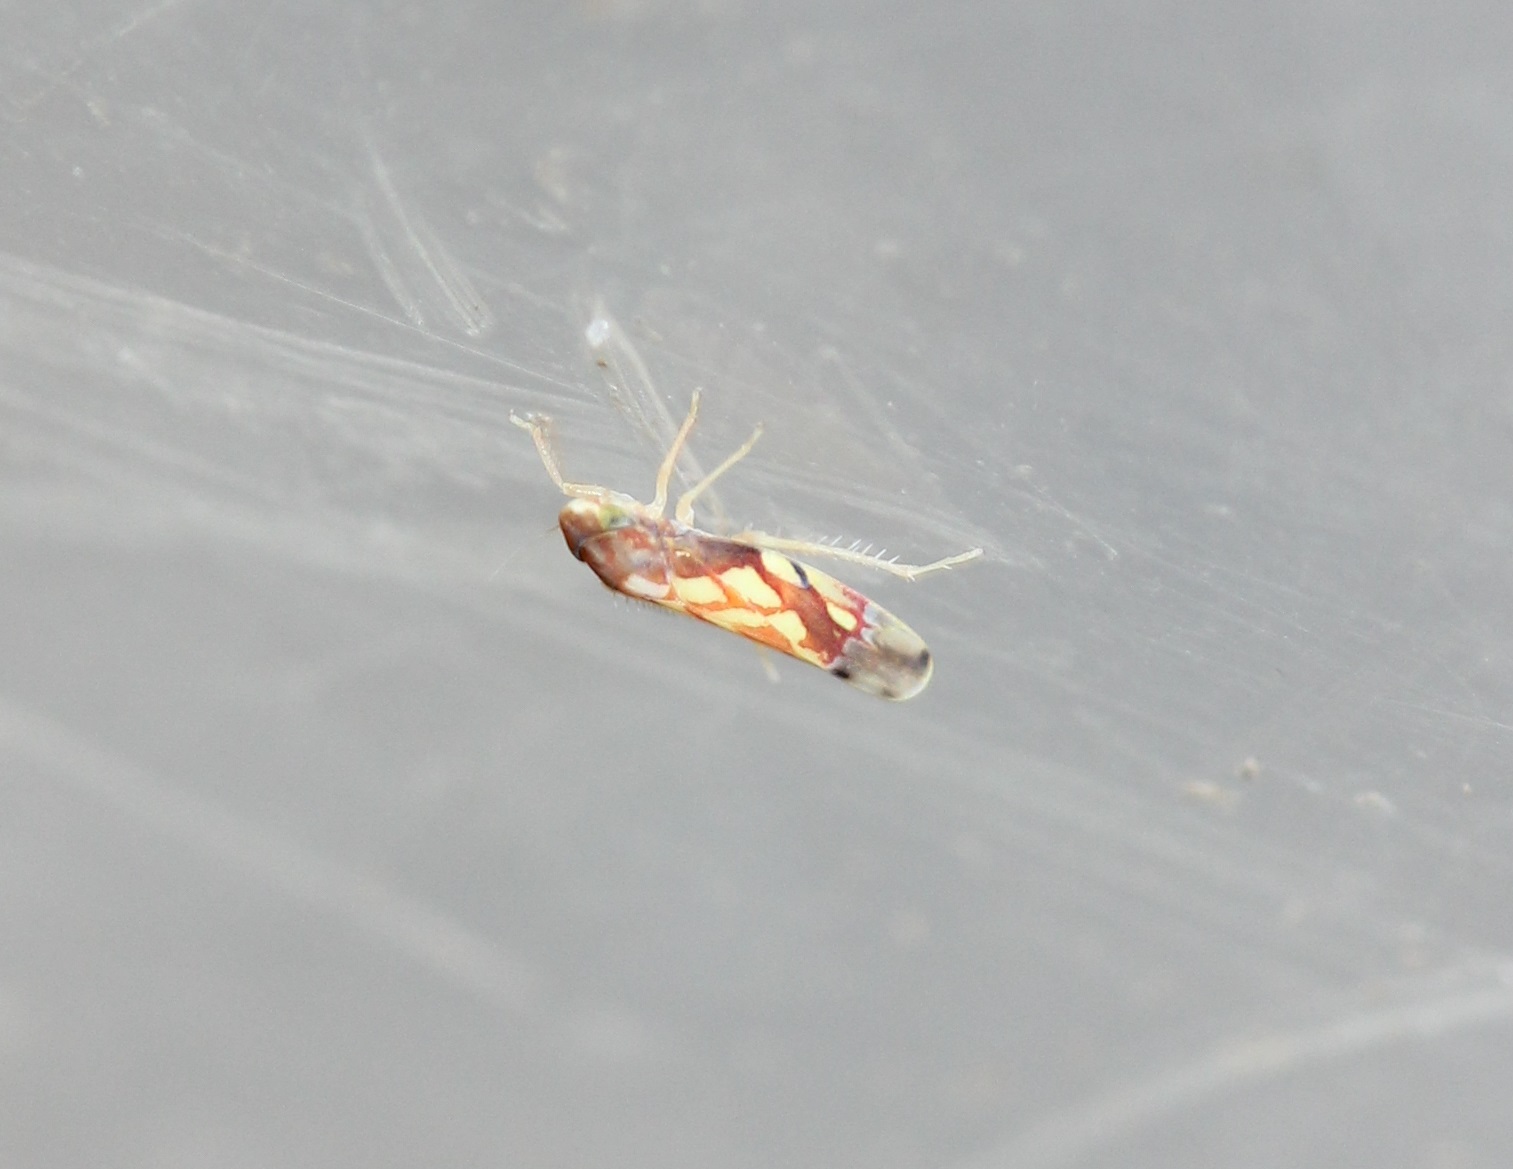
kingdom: Animalia
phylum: Arthropoda
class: Insecta
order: Hemiptera
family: Cicadellidae
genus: Erythroneura
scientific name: Erythroneura cancellata
